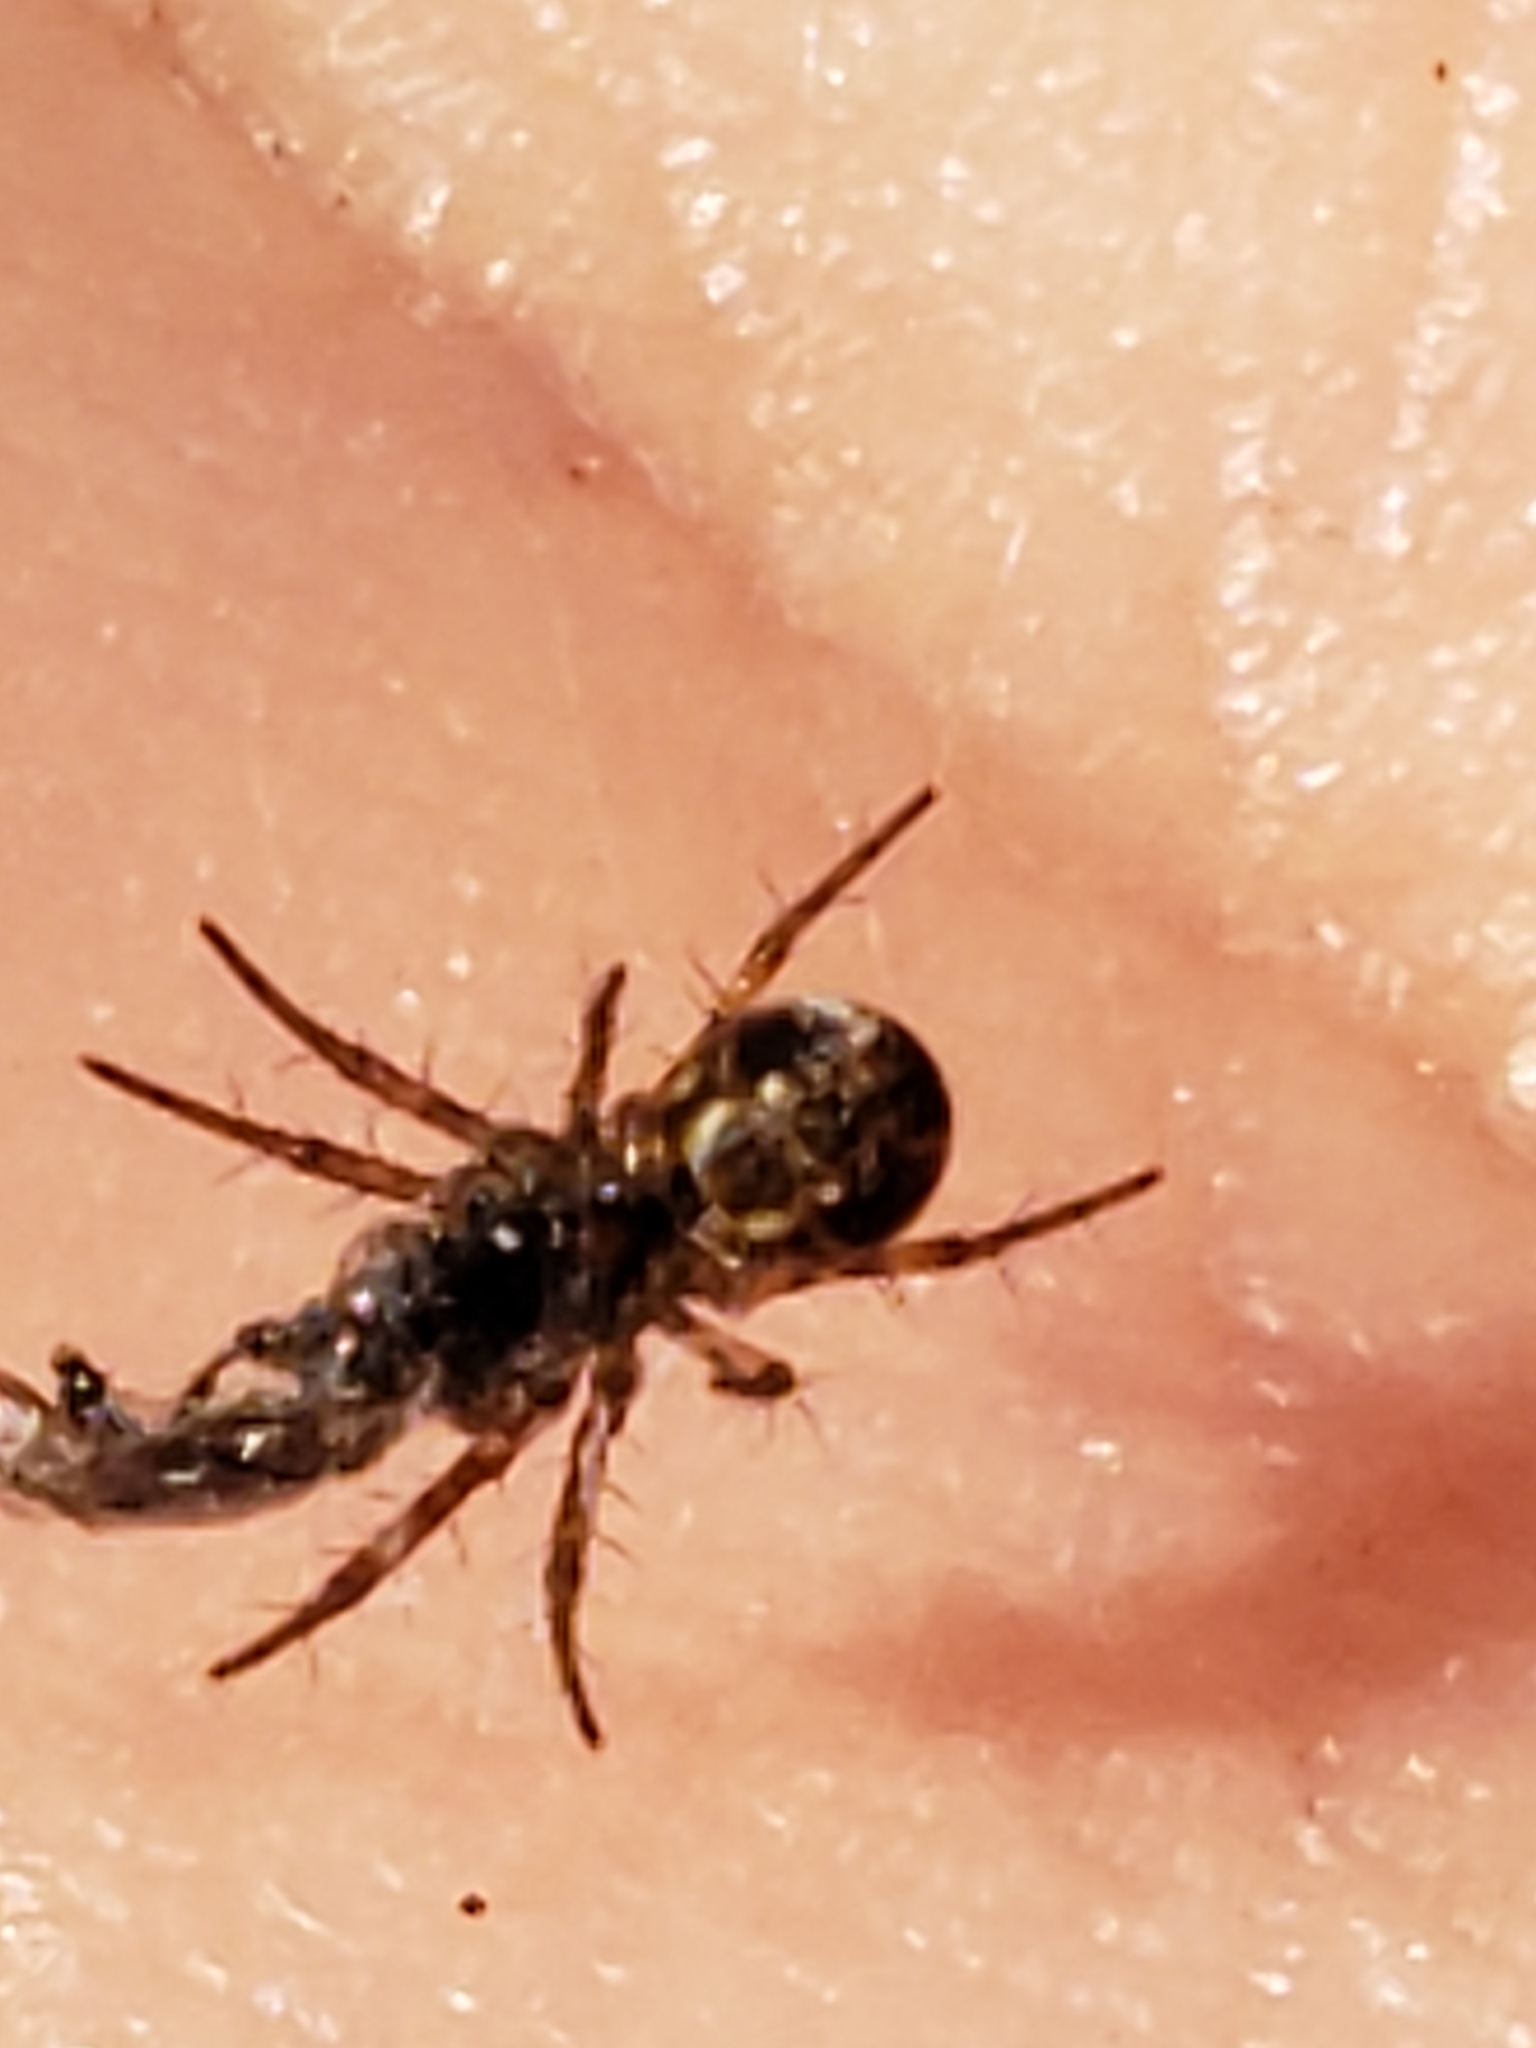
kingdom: Animalia
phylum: Arthropoda
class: Arachnida
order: Araneae
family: Araneidae
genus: Mangora
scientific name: Mangora placida
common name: Tuft-legged orbweaver
